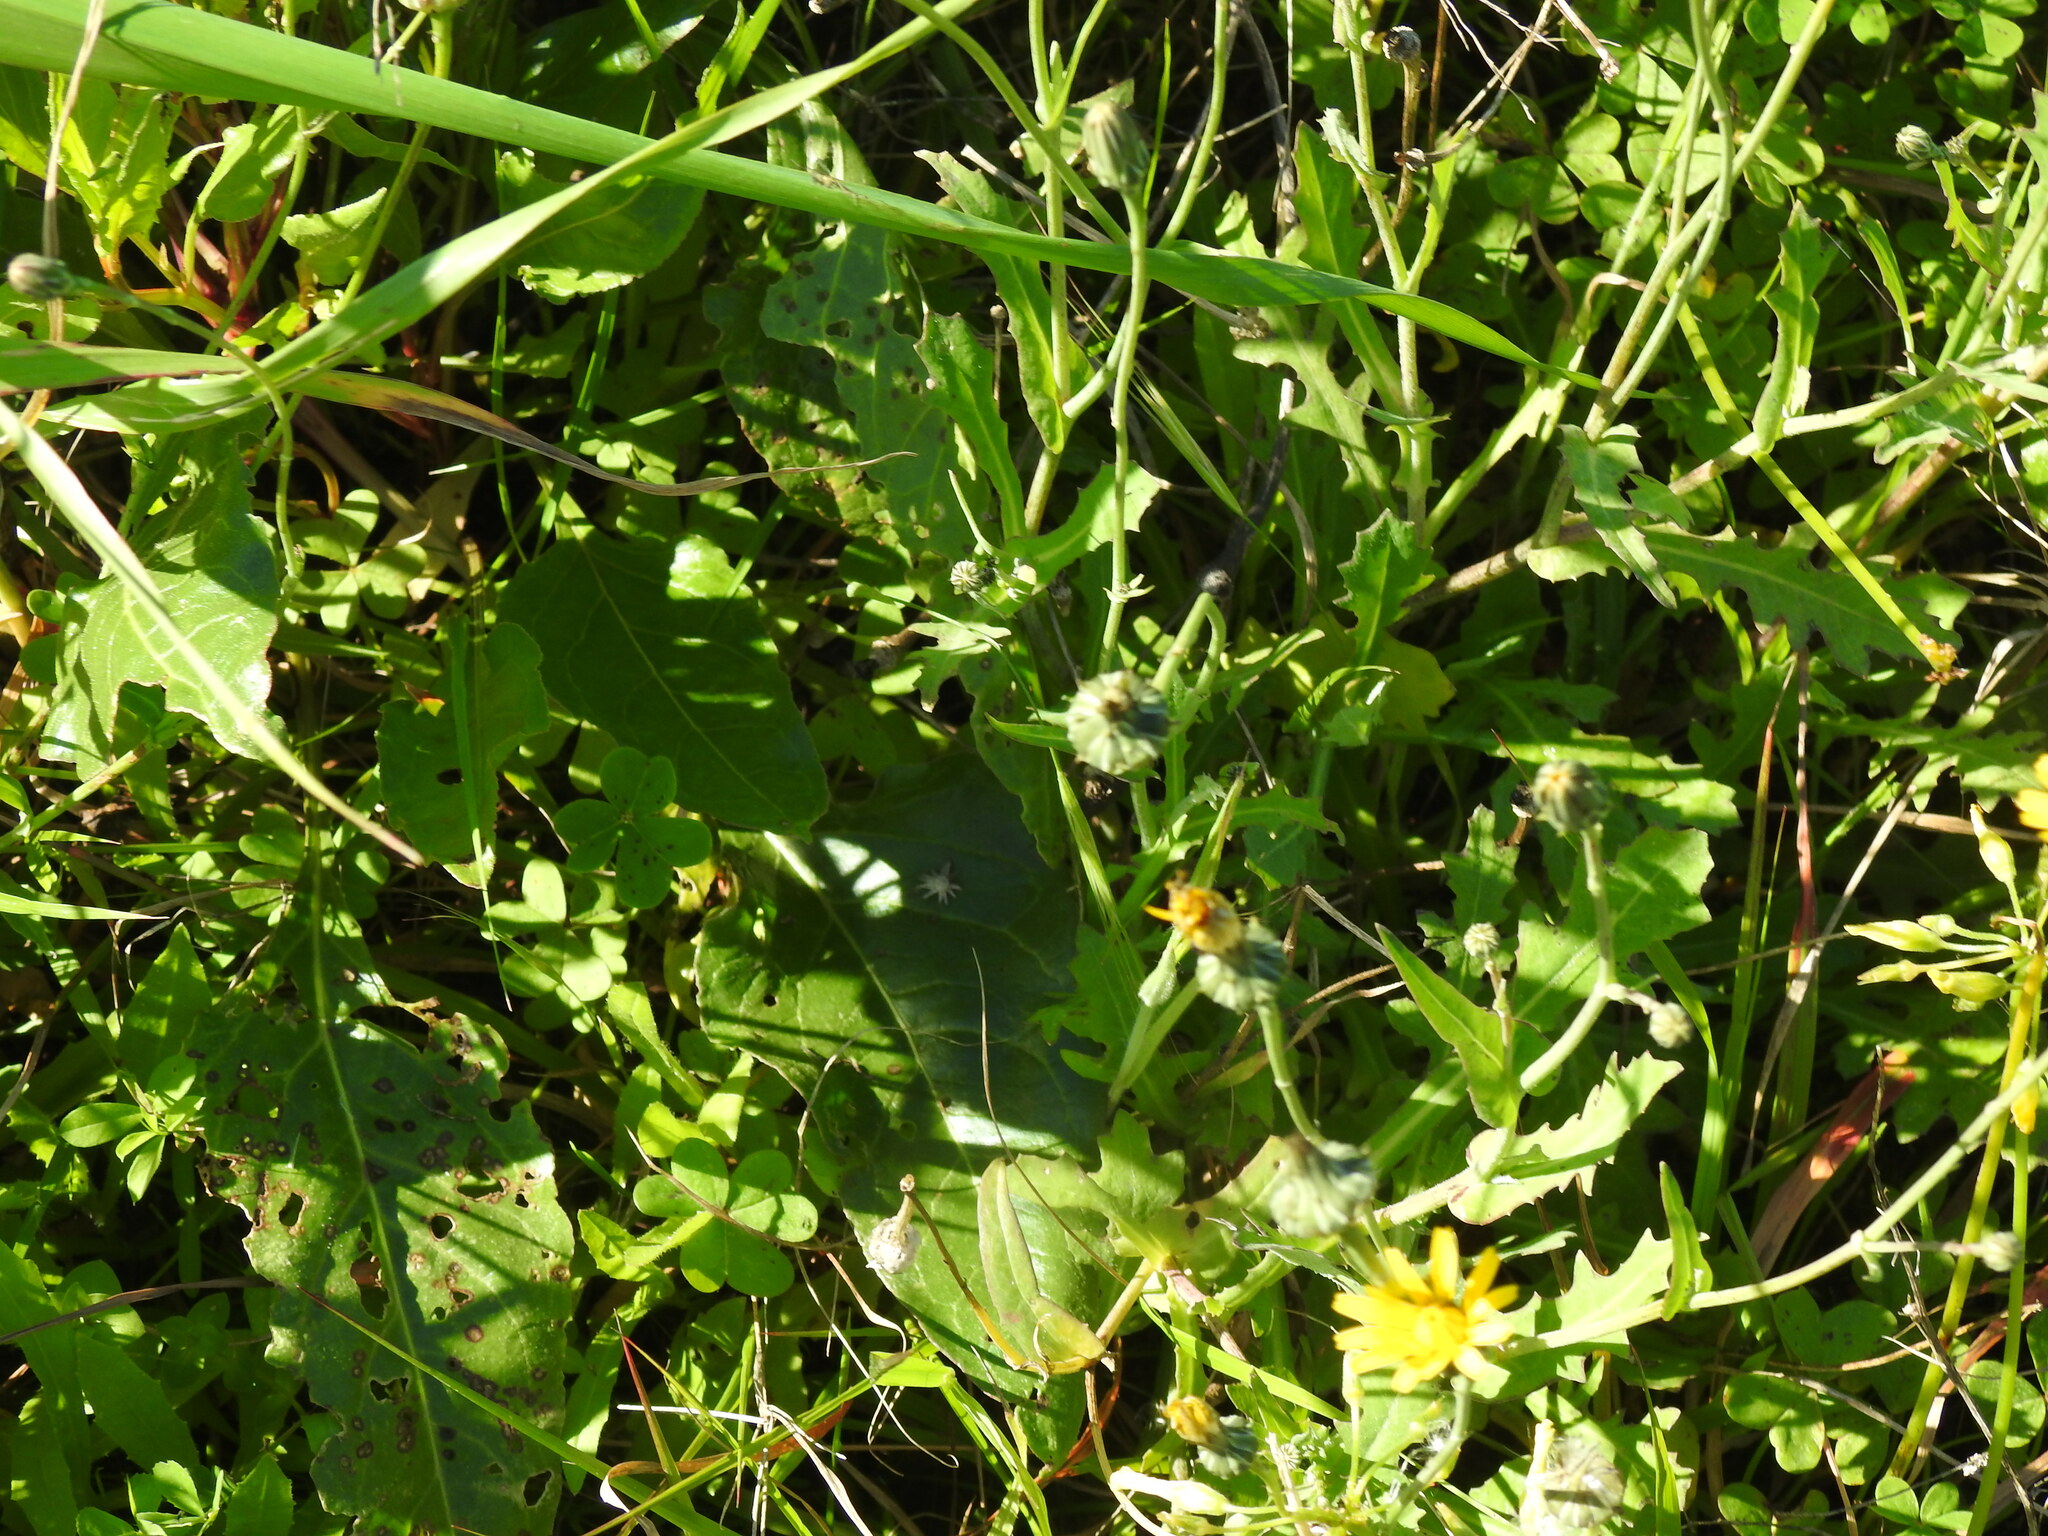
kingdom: Plantae
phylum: Tracheophyta
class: Magnoliopsida
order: Asterales
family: Asteraceae
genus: Reichardia
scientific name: Reichardia picroides
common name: Common brighteyes
